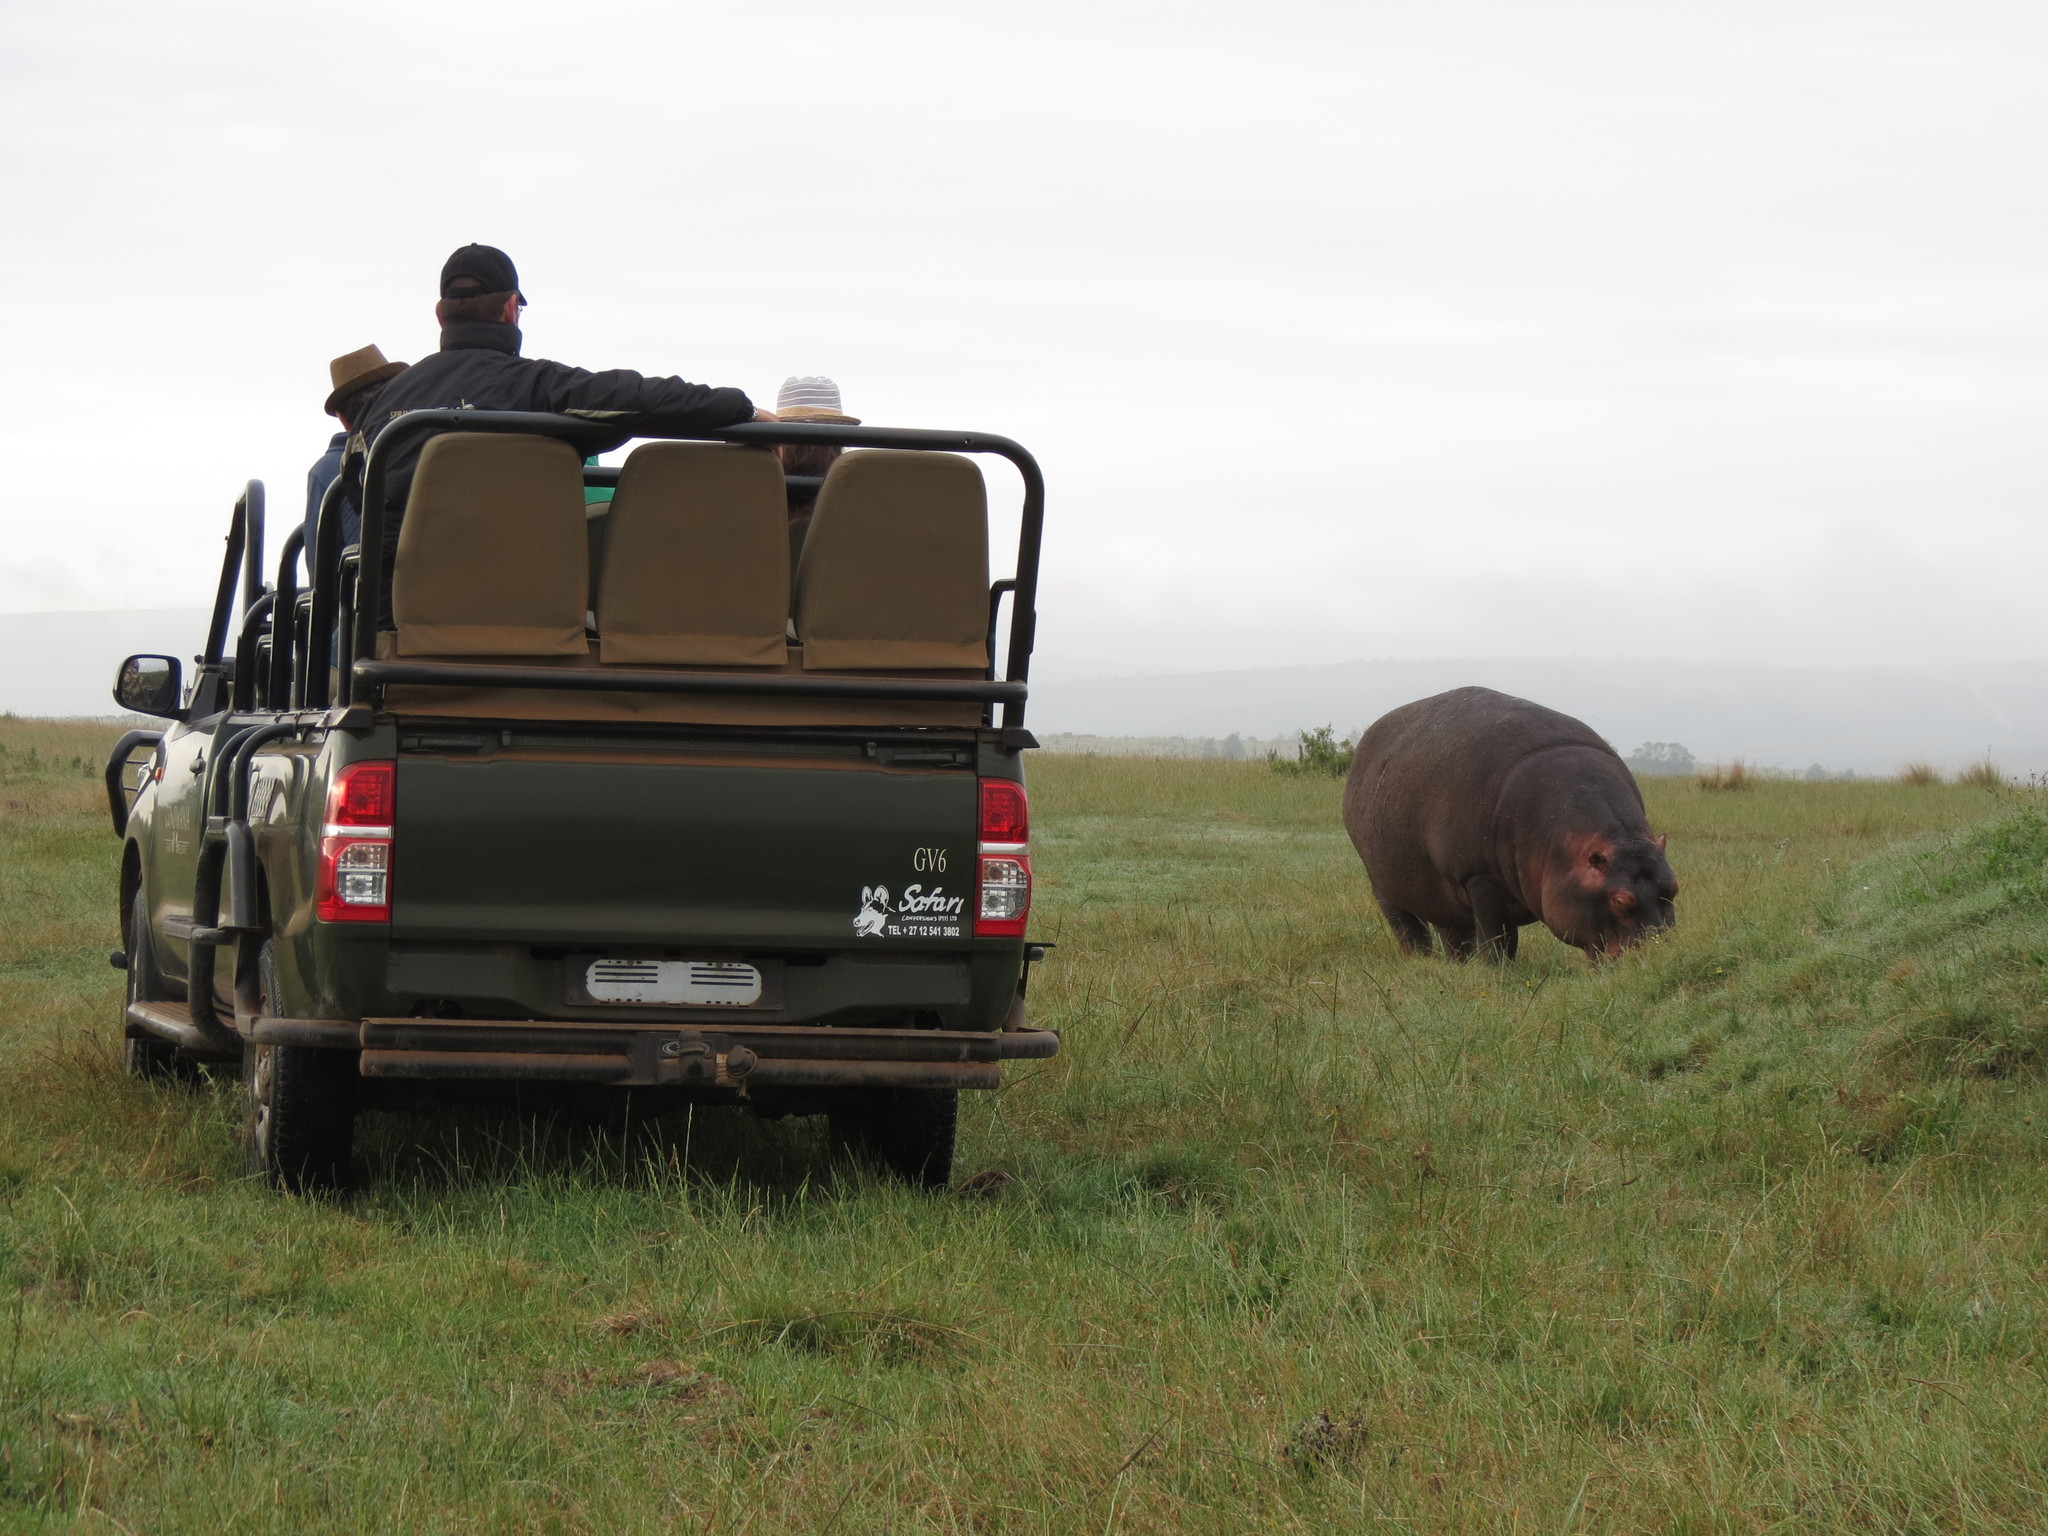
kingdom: Animalia
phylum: Chordata
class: Mammalia
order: Artiodactyla
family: Hippopotamidae
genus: Hippopotamus
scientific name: Hippopotamus amphibius
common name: Common hippopotamus
